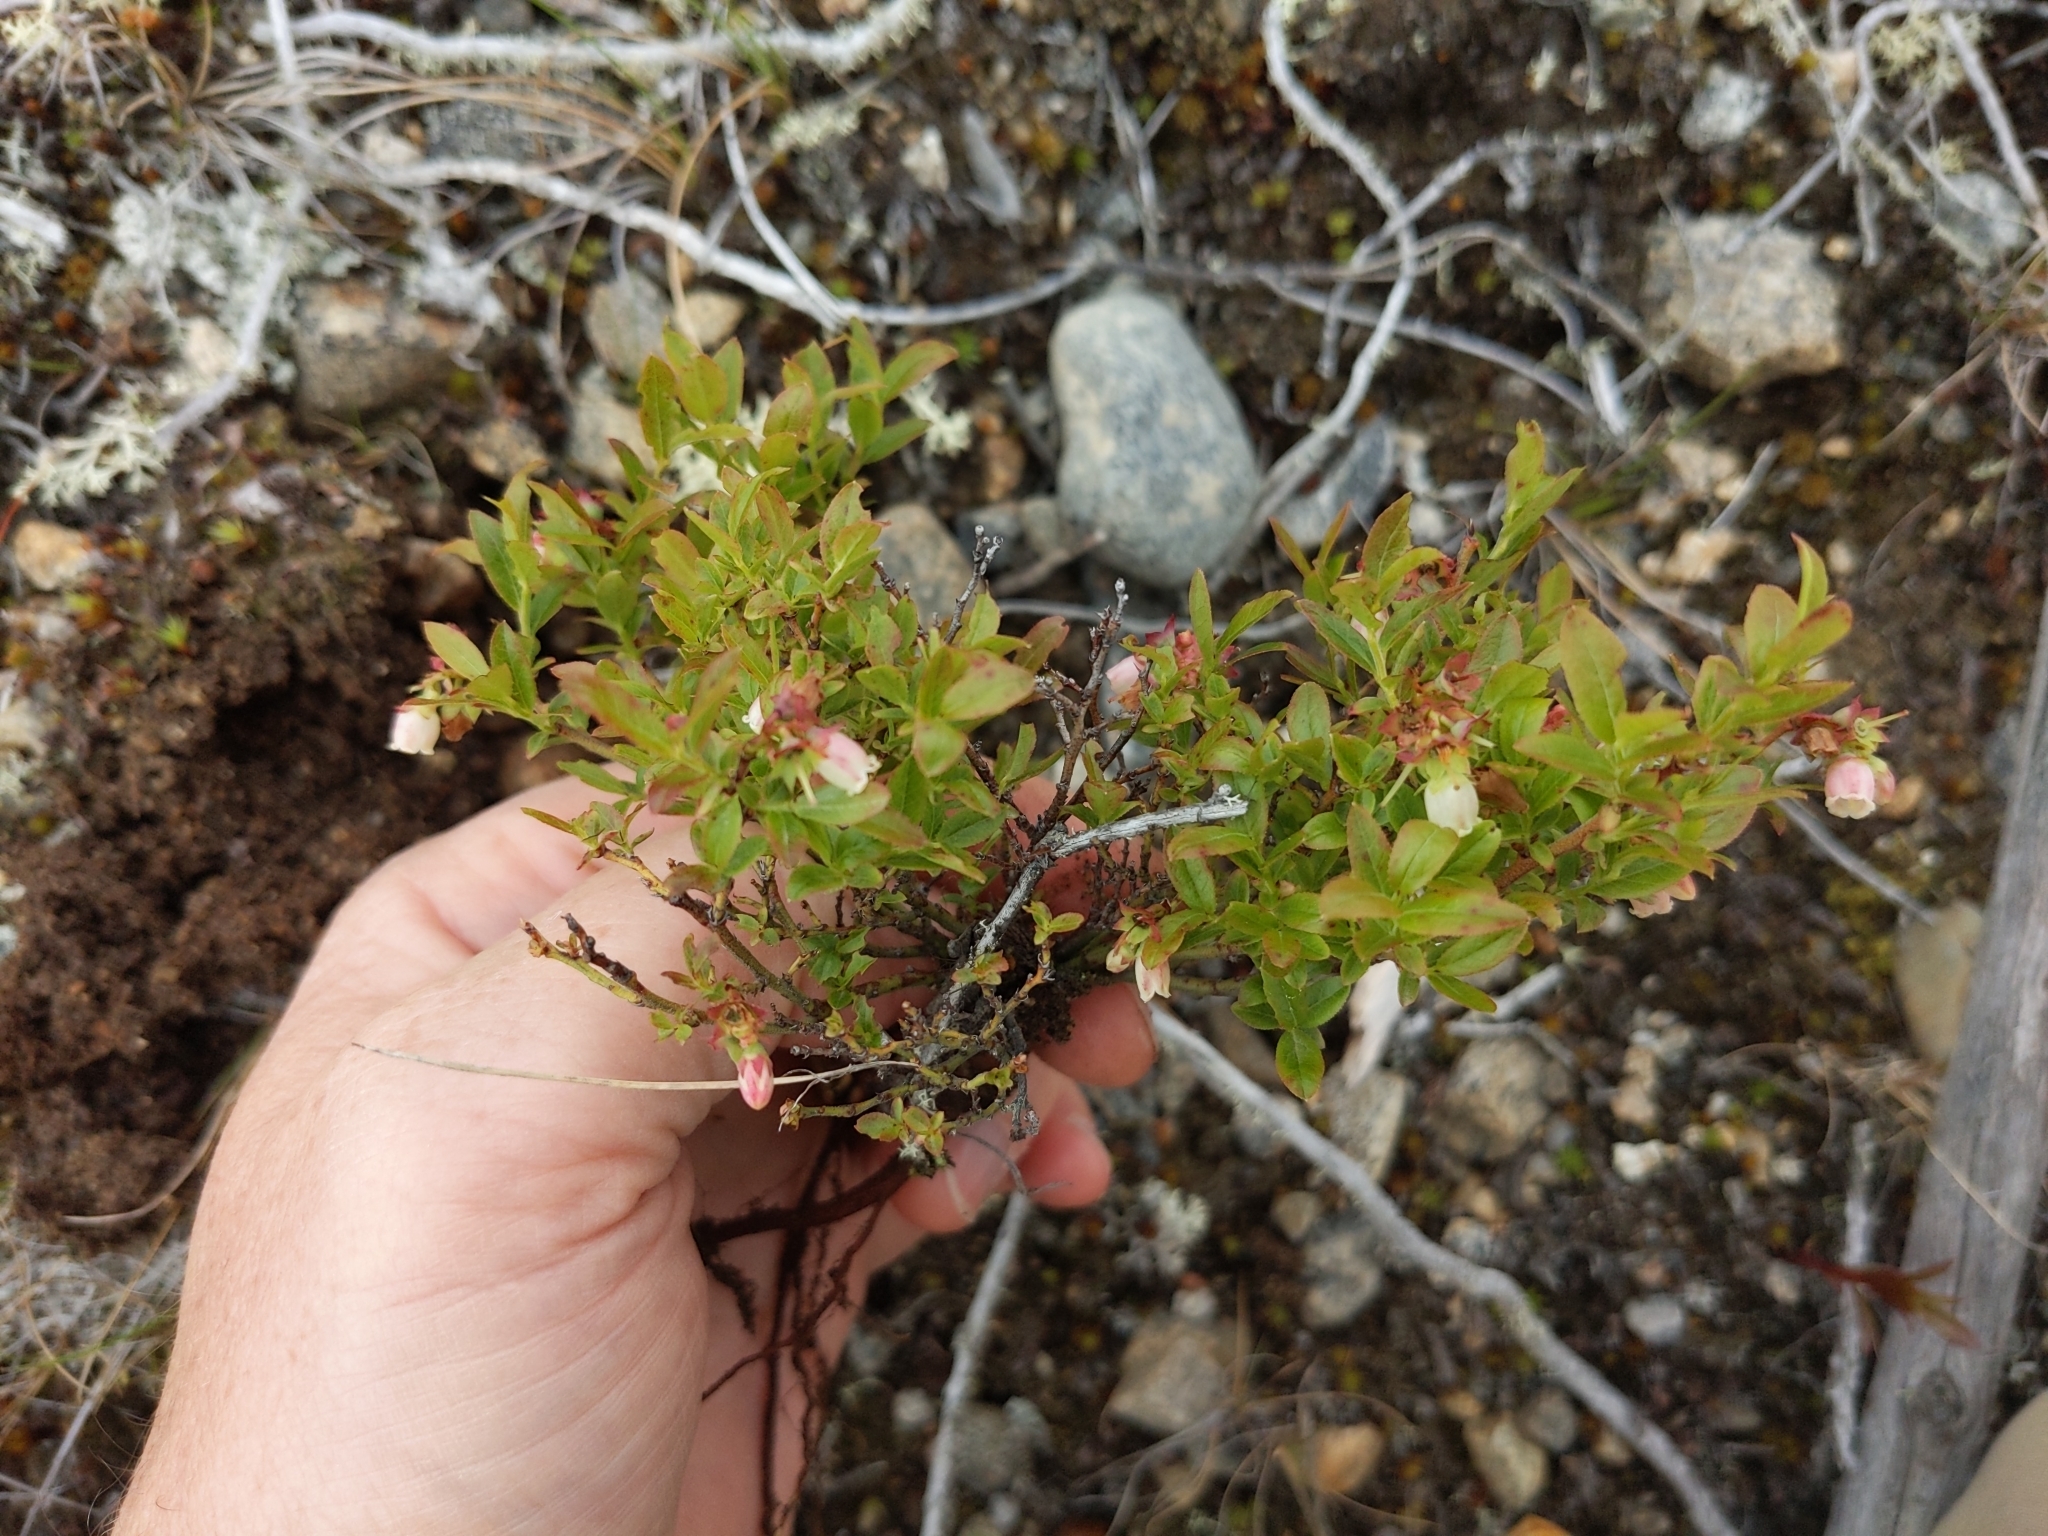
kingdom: Plantae
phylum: Tracheophyta
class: Magnoliopsida
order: Ericales
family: Ericaceae
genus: Vaccinium
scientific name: Vaccinium boreale
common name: Northern blueberry
